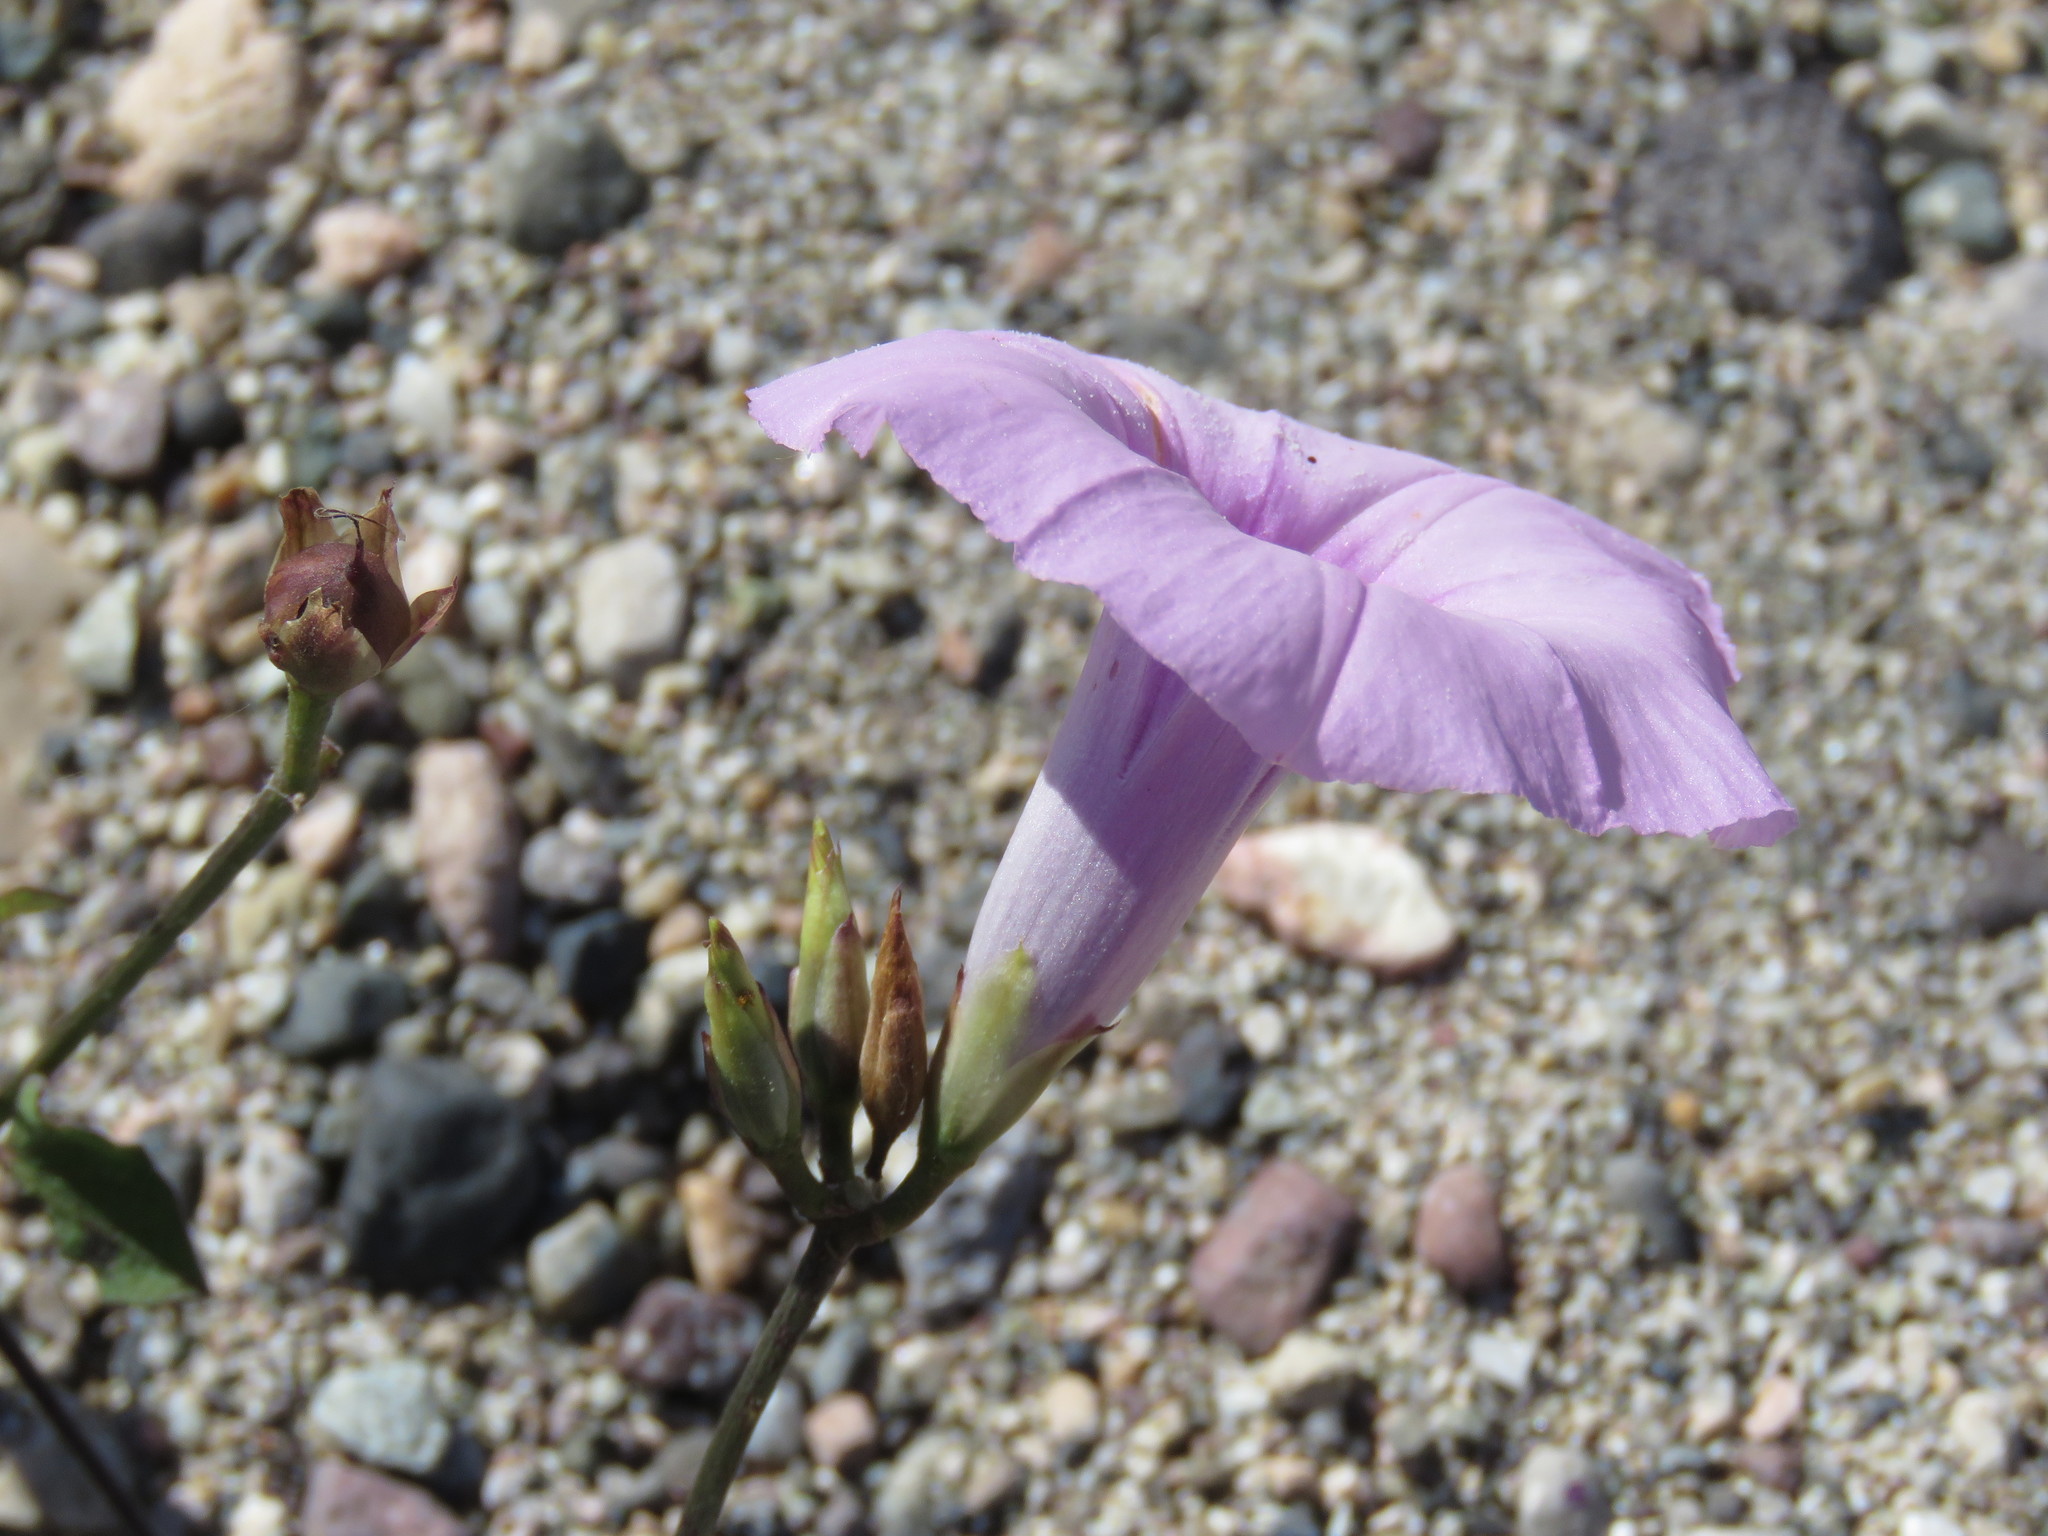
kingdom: Plantae
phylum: Tracheophyta
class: Magnoliopsida
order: Solanales
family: Convolvulaceae
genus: Ipomoea
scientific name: Ipomoea batatas
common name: Sweet-potato
